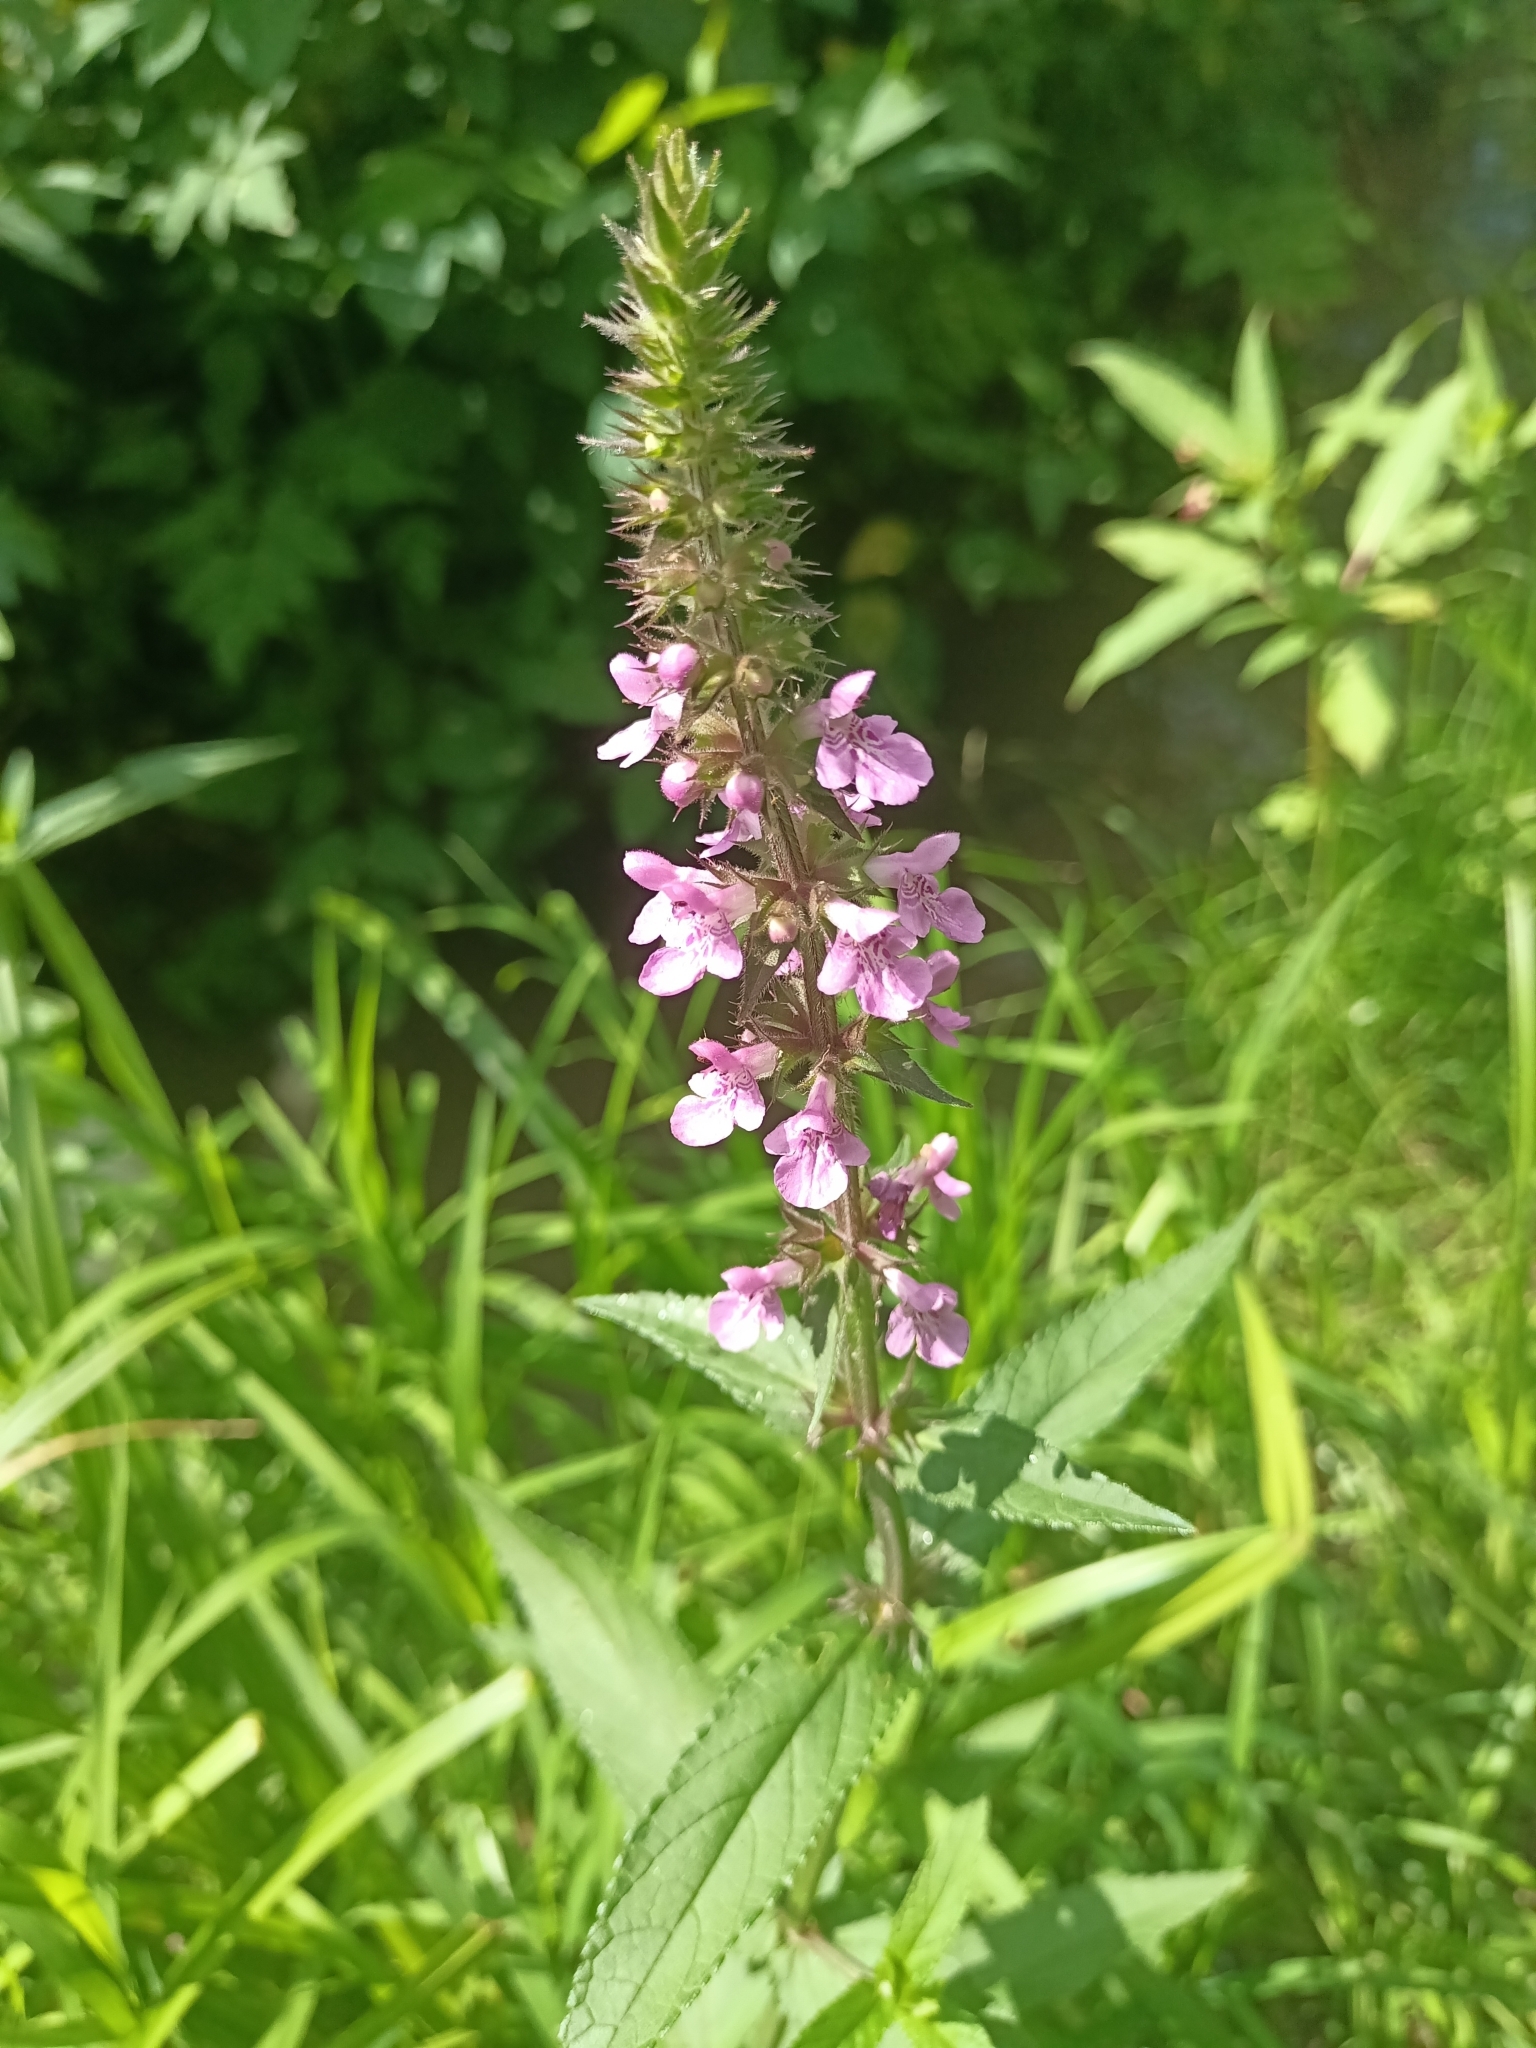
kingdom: Plantae
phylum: Tracheophyta
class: Magnoliopsida
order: Lamiales
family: Lamiaceae
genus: Stachys
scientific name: Stachys palustris
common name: Marsh woundwort
